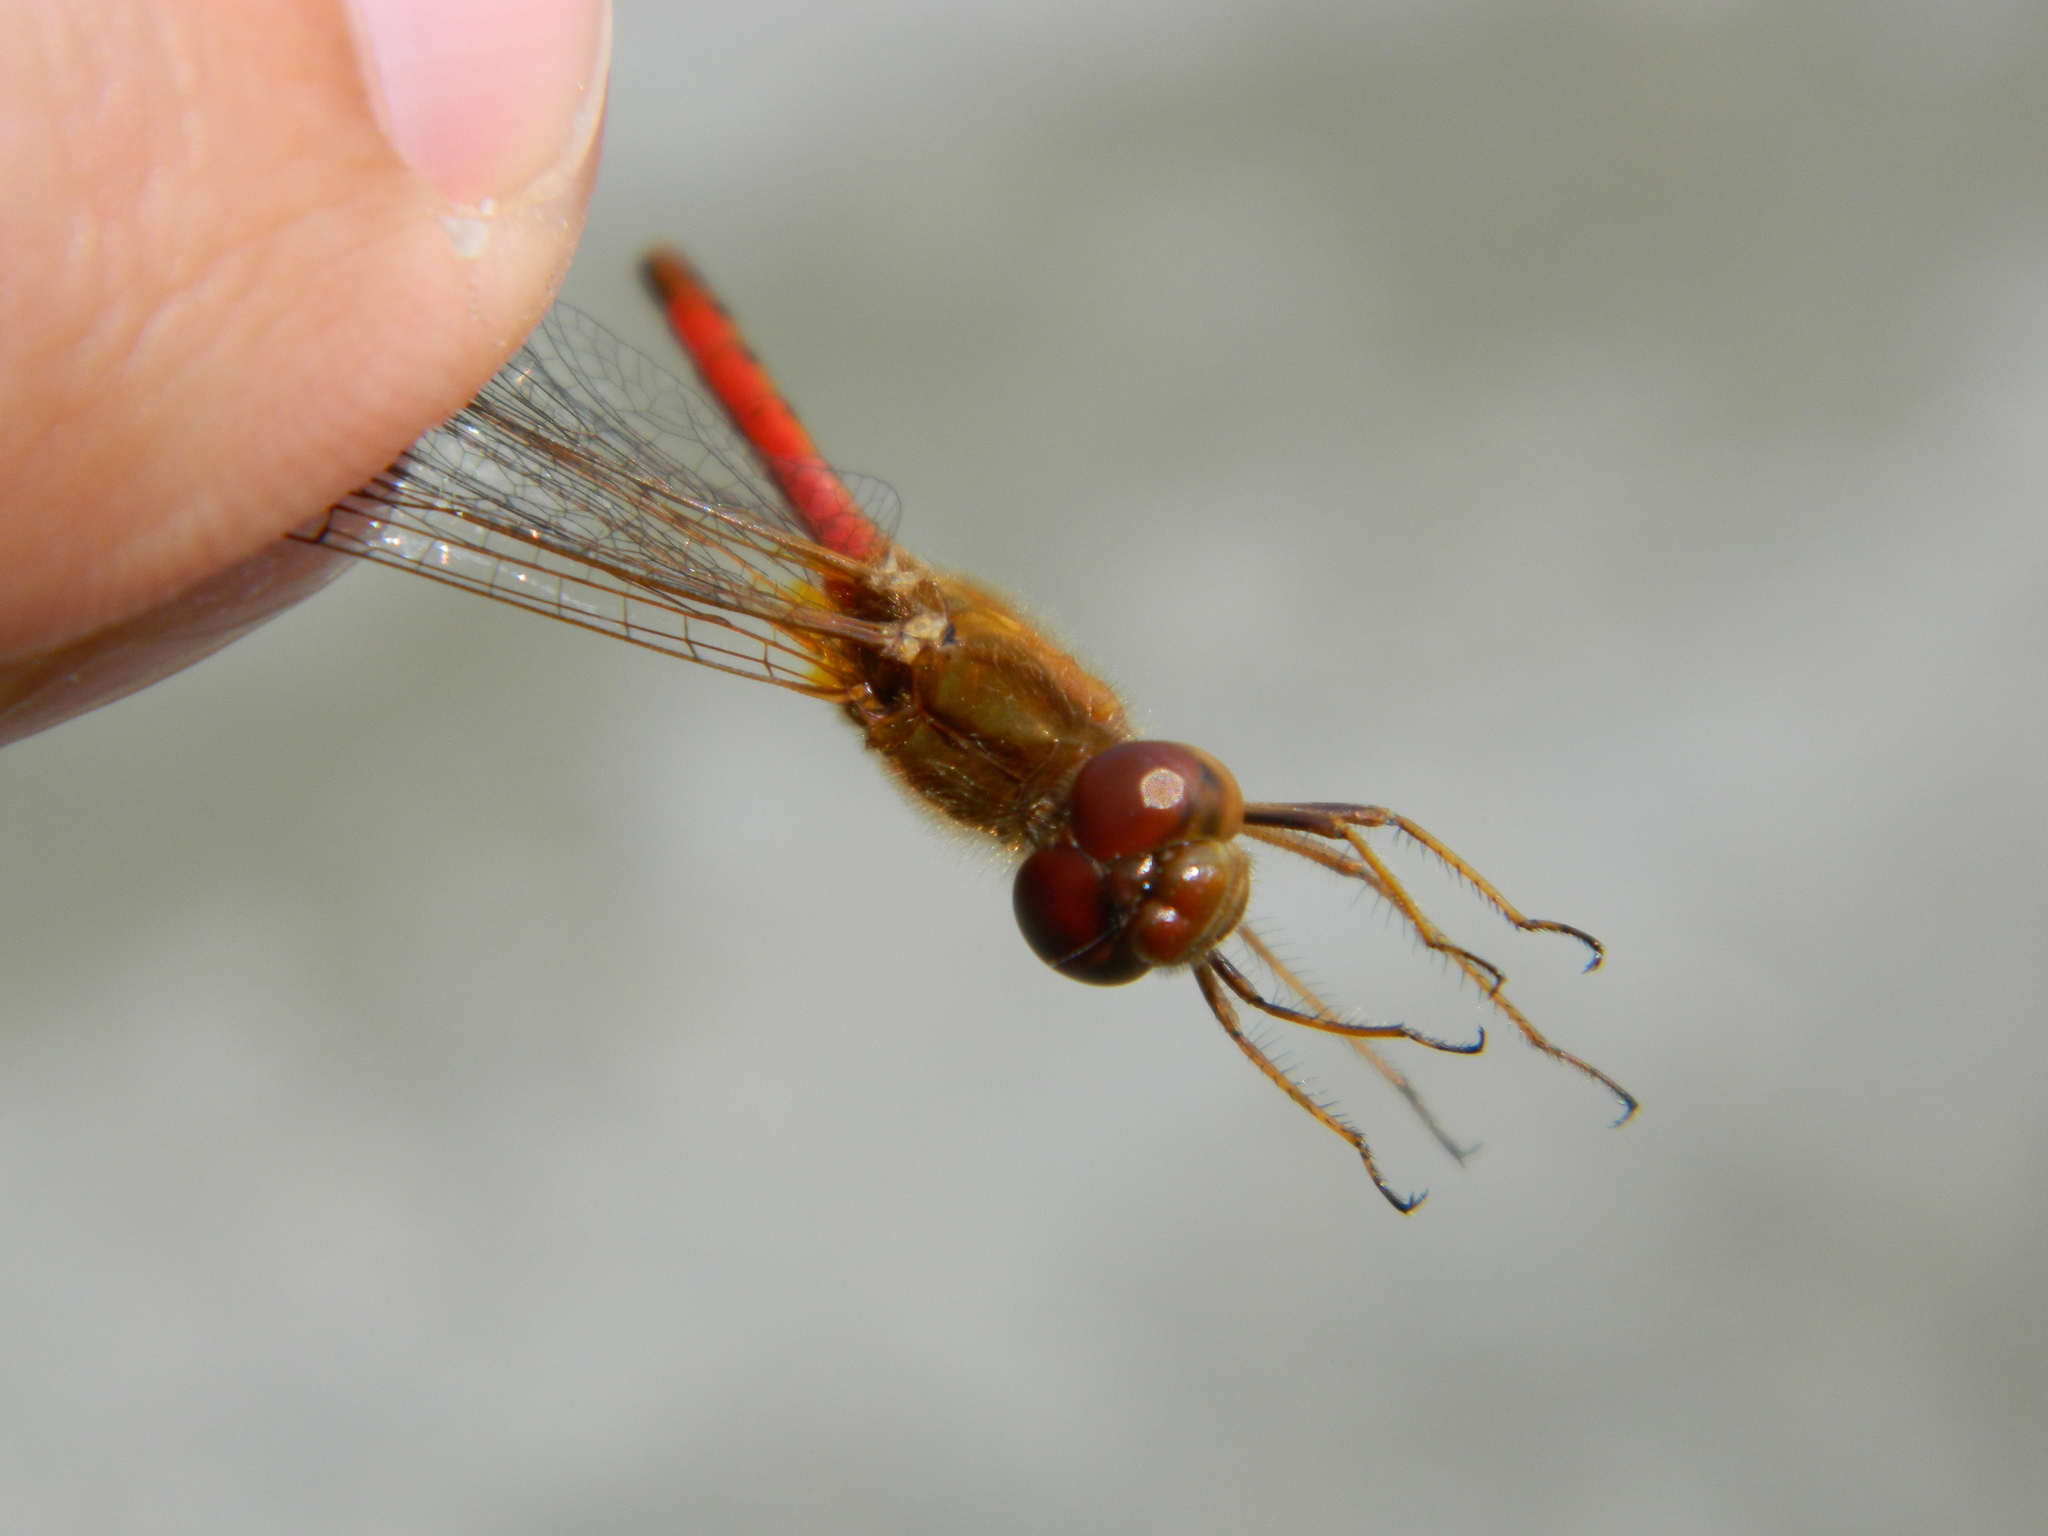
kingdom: Animalia
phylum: Arthropoda
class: Insecta
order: Odonata
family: Libellulidae
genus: Sympetrum
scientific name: Sympetrum vicinum
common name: Autumn meadowhawk
